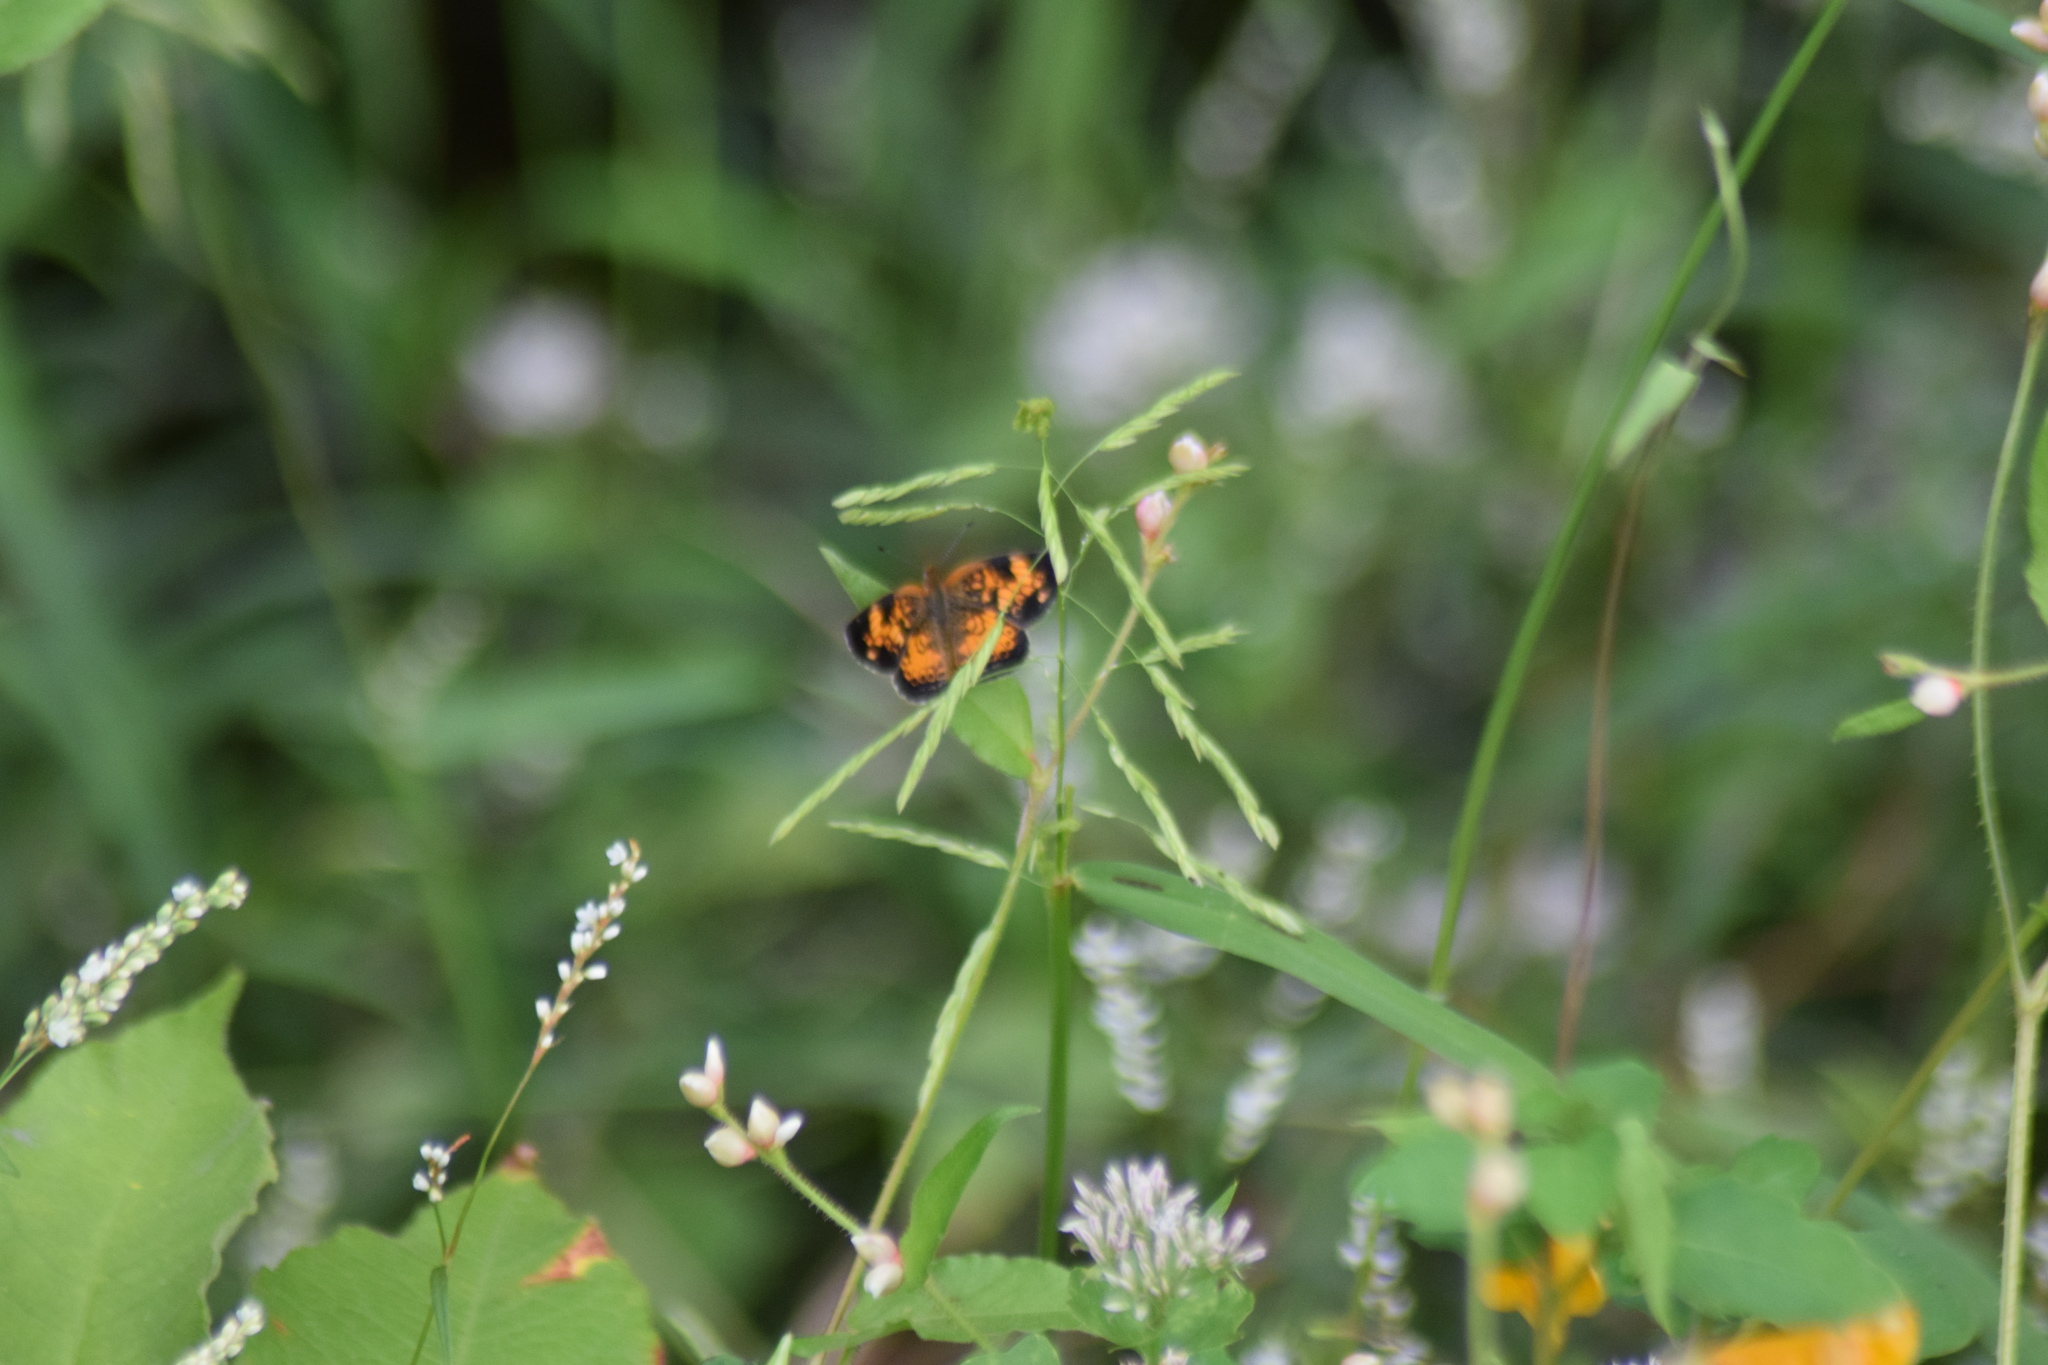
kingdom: Animalia
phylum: Arthropoda
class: Insecta
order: Lepidoptera
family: Nymphalidae
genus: Phyciodes
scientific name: Phyciodes tharos
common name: Pearl crescent
